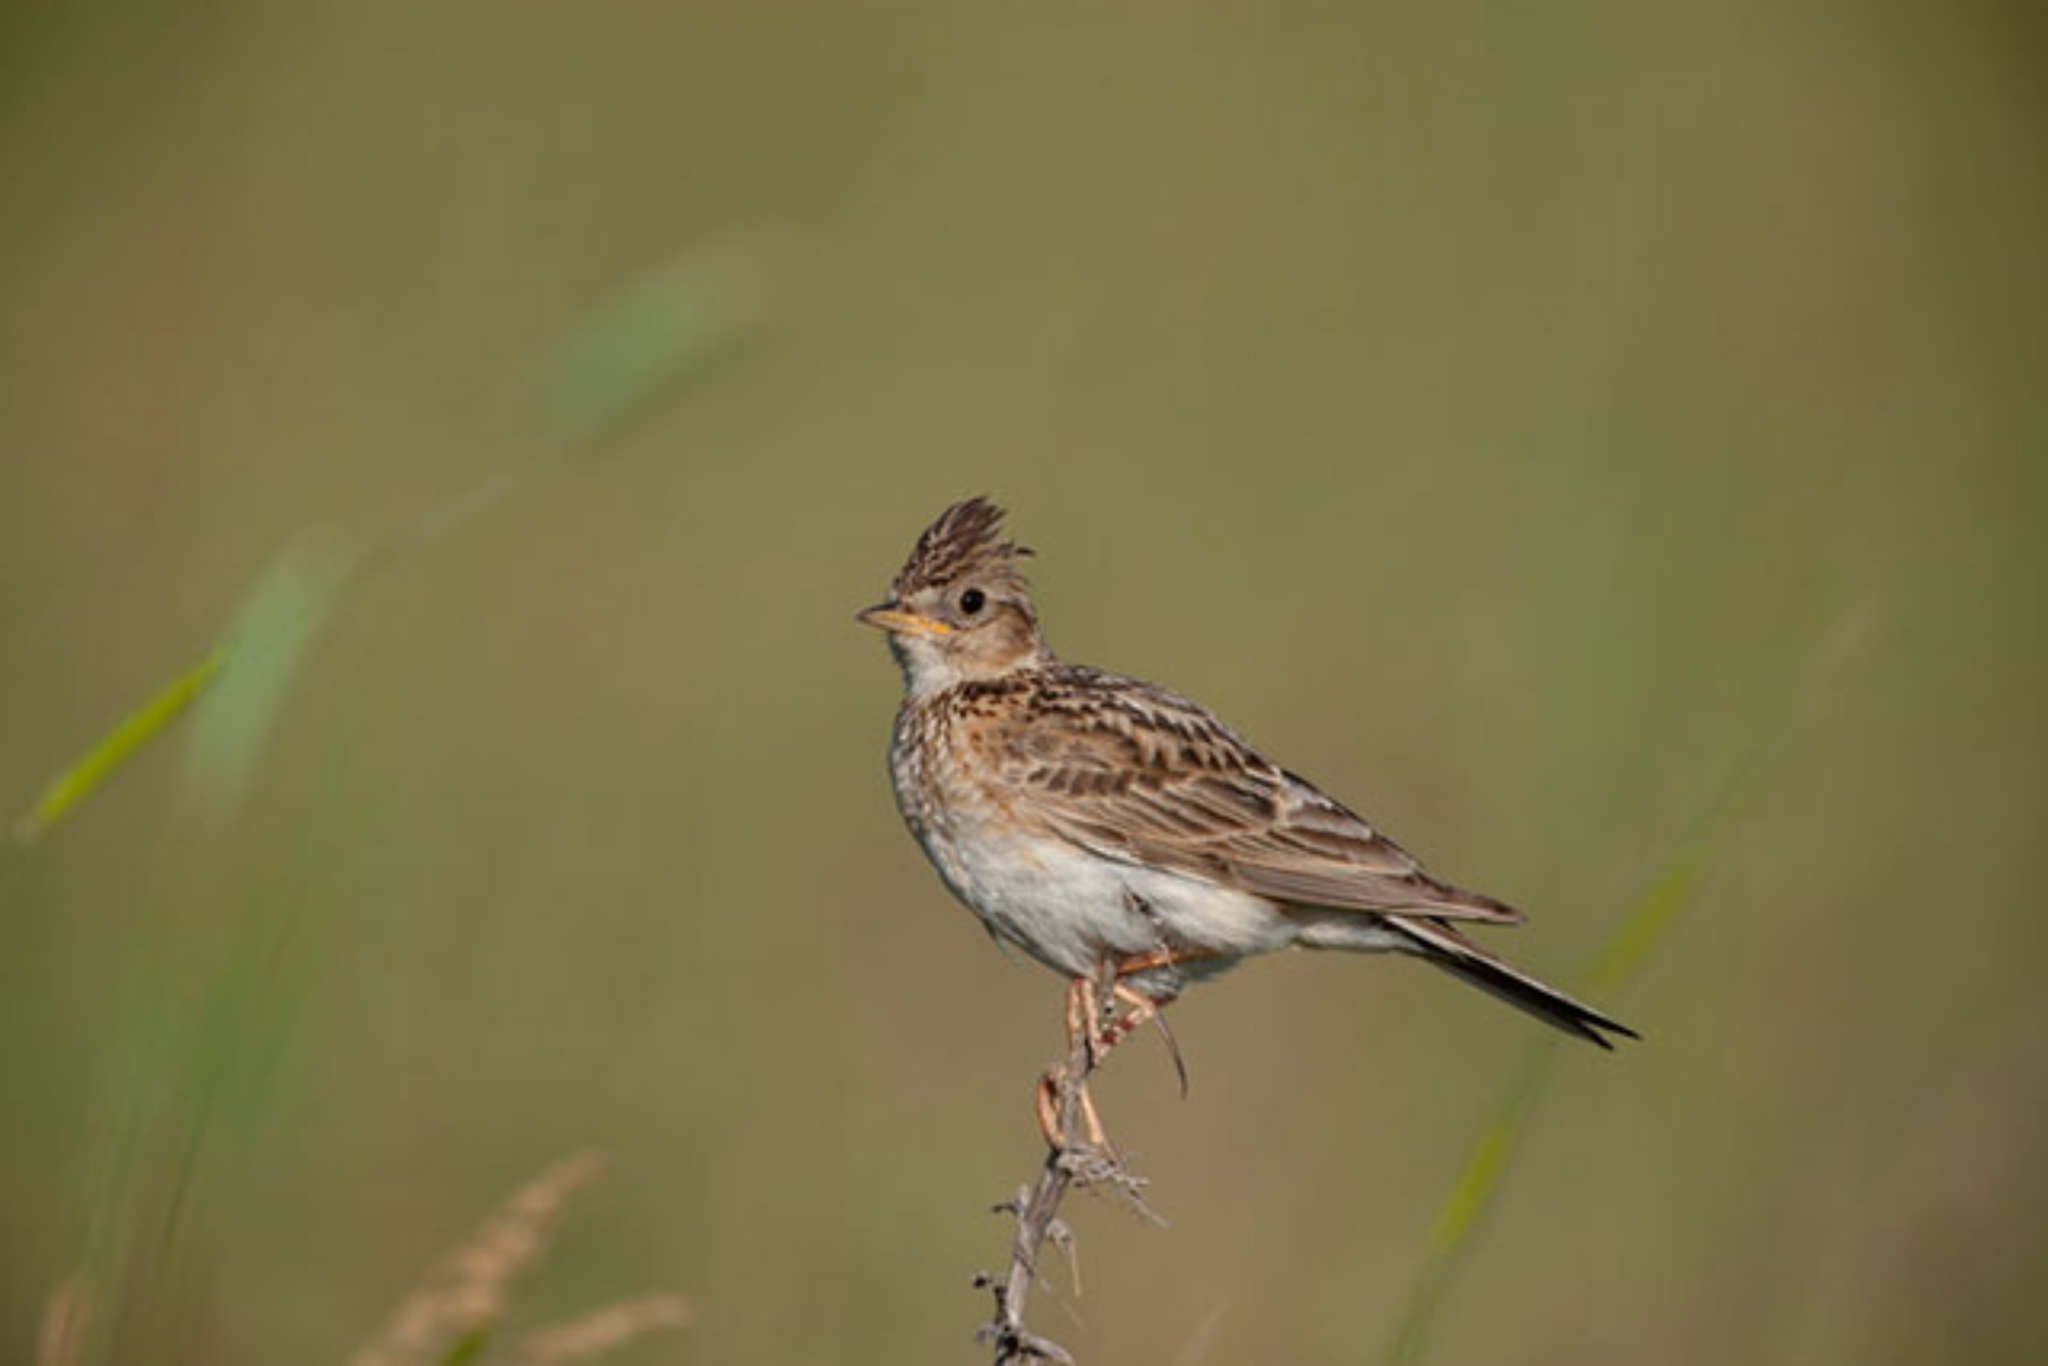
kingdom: Animalia
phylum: Chordata
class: Aves
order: Passeriformes
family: Alaudidae
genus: Alauda
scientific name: Alauda arvensis
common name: Eurasian skylark
